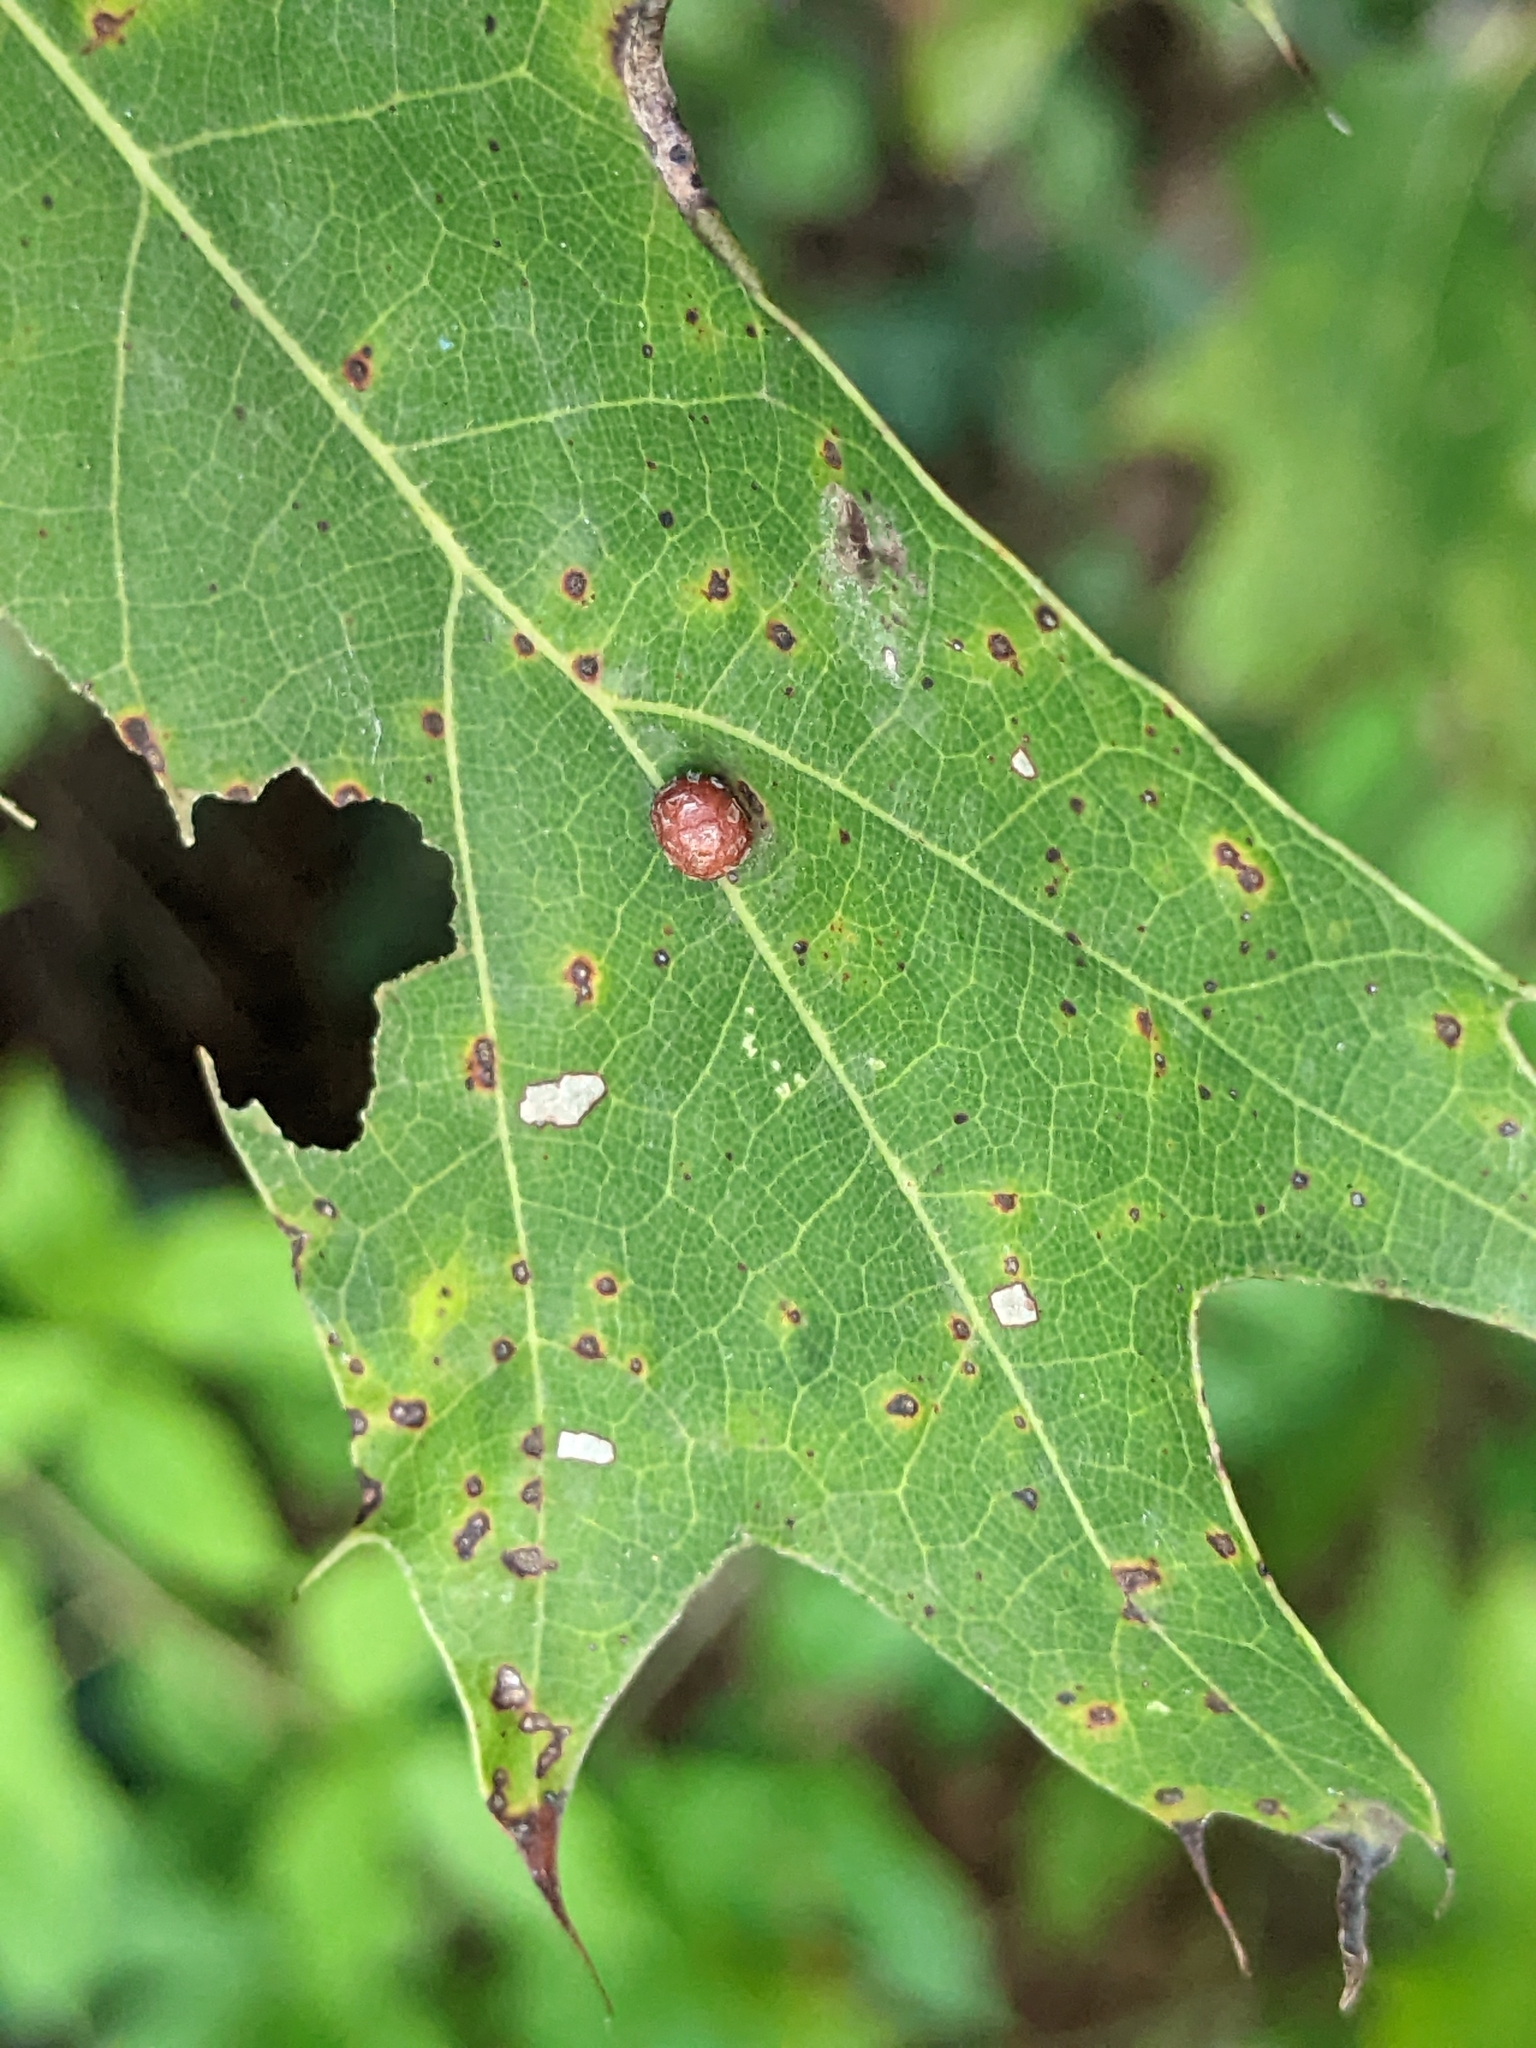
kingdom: Animalia
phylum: Arthropoda
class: Insecta
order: Diptera
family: Cecidomyiidae
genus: Polystepha
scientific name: Polystepha pilulae
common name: Oak leaf gall midge
